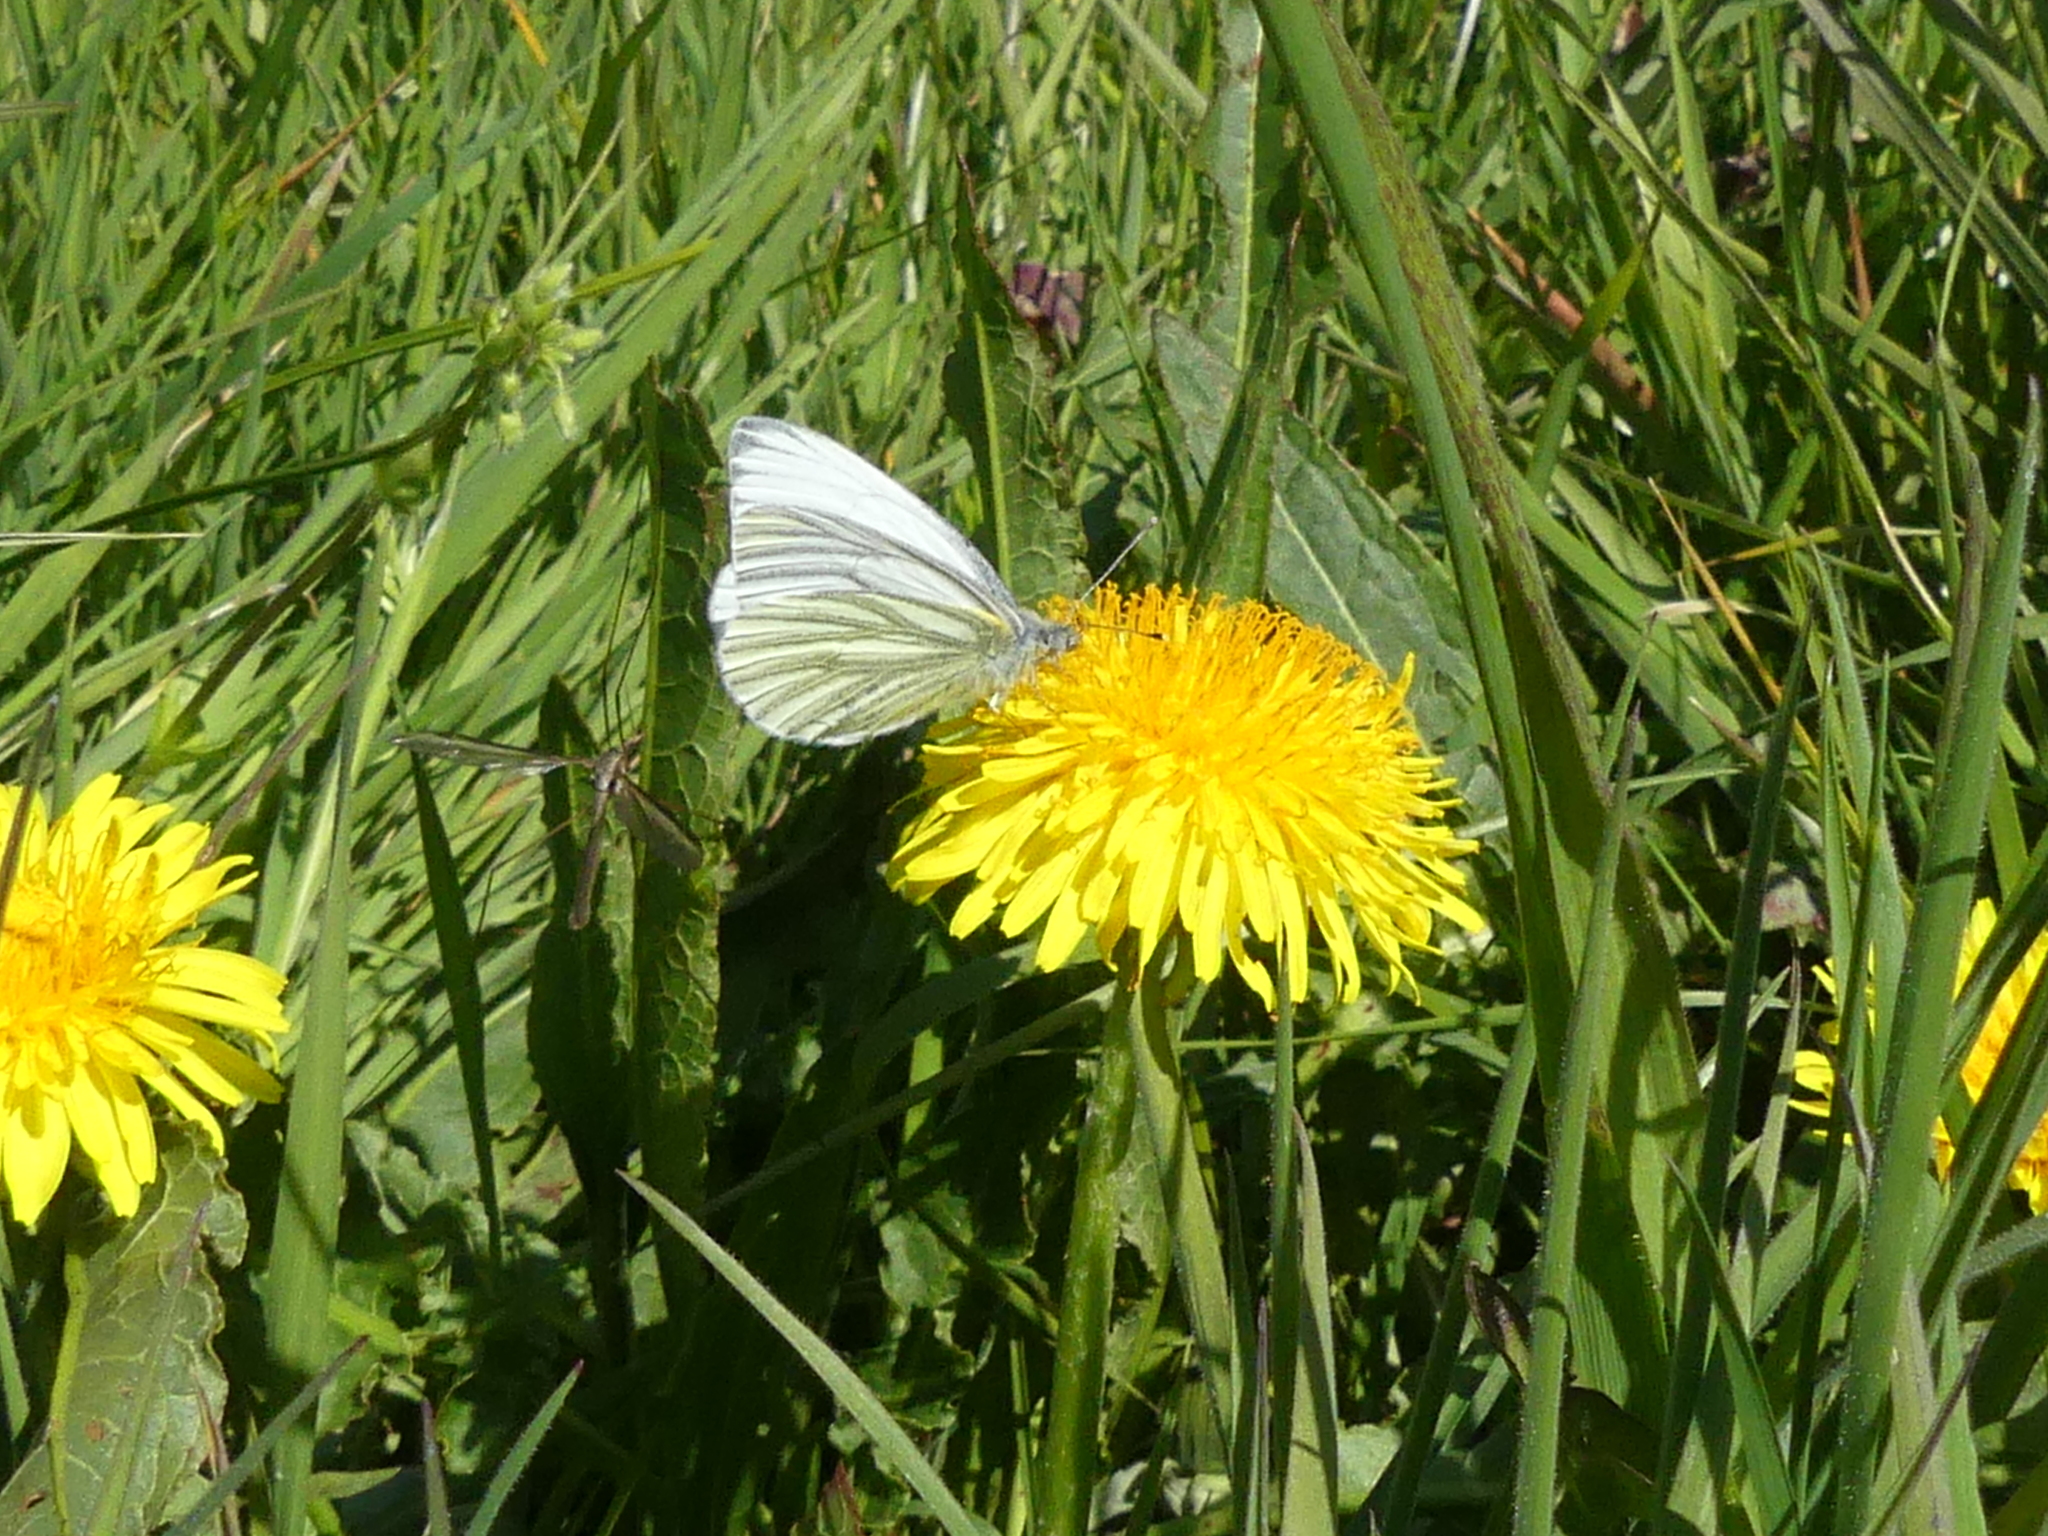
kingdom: Animalia
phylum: Arthropoda
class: Insecta
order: Lepidoptera
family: Pieridae
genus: Pieris
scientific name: Pieris napi
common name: Green-veined white
